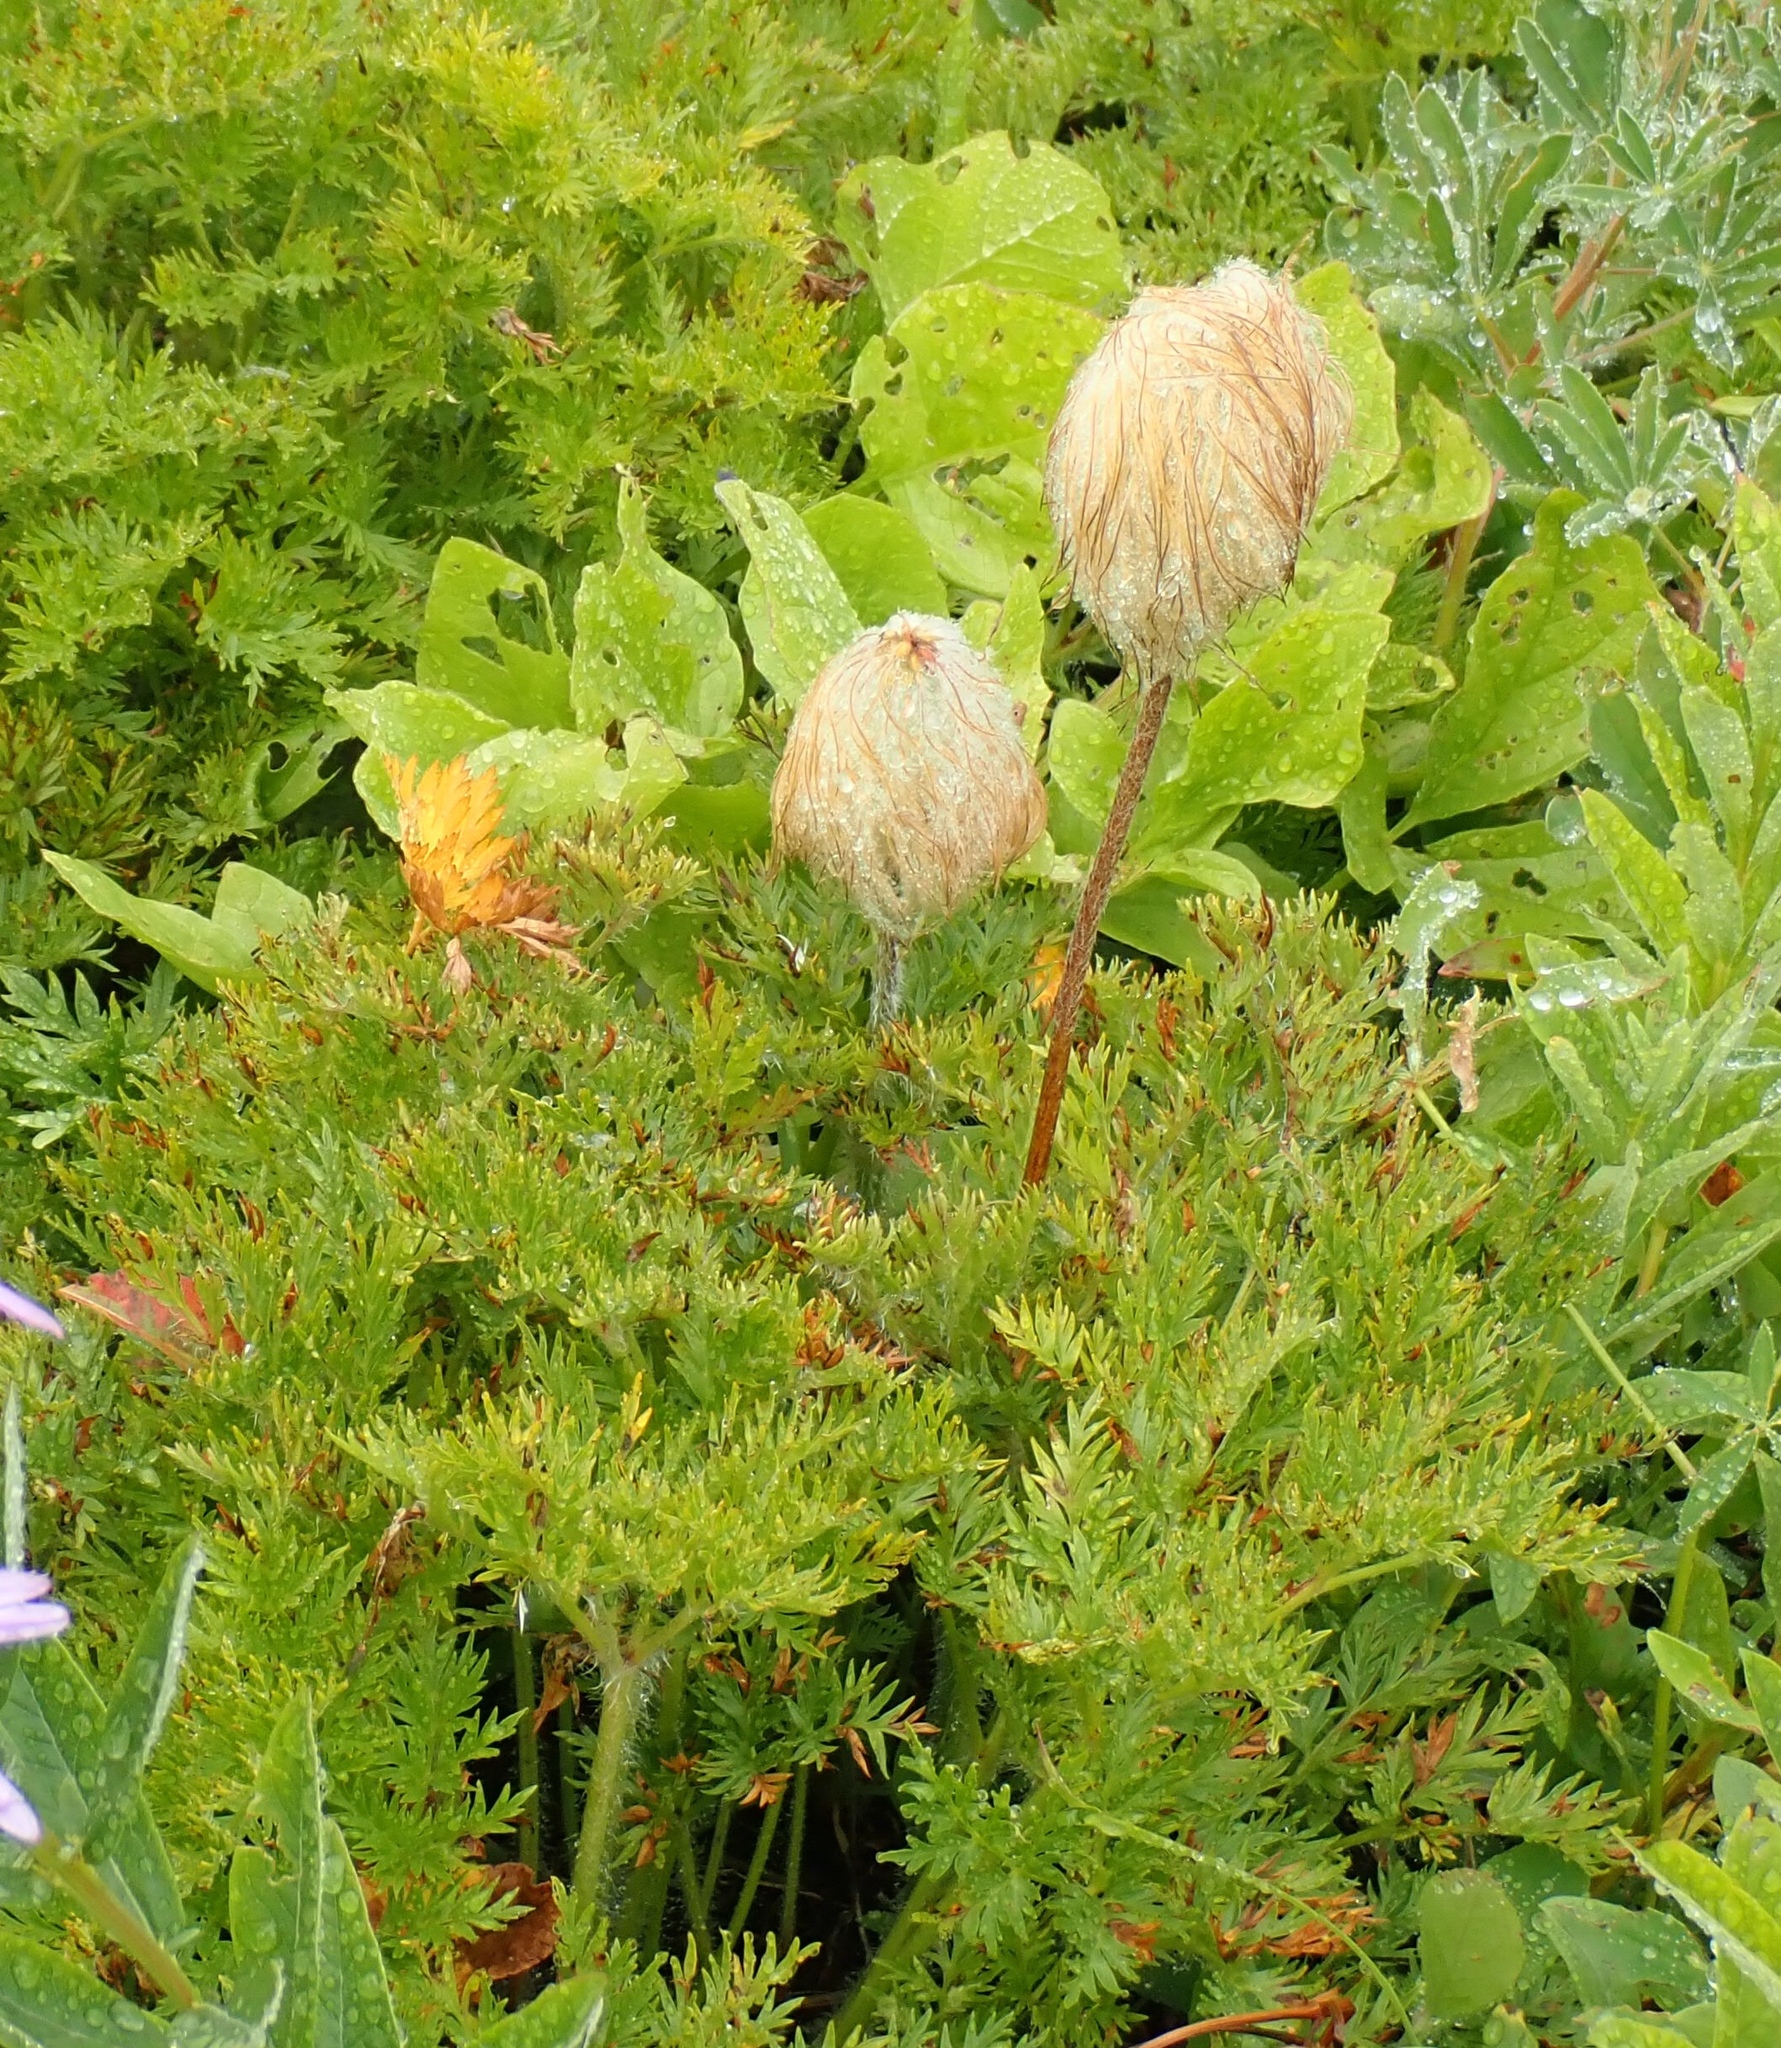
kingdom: Plantae
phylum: Tracheophyta
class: Magnoliopsida
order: Ranunculales
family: Ranunculaceae
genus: Pulsatilla
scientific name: Pulsatilla occidentalis
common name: Mountain pasqueflower
